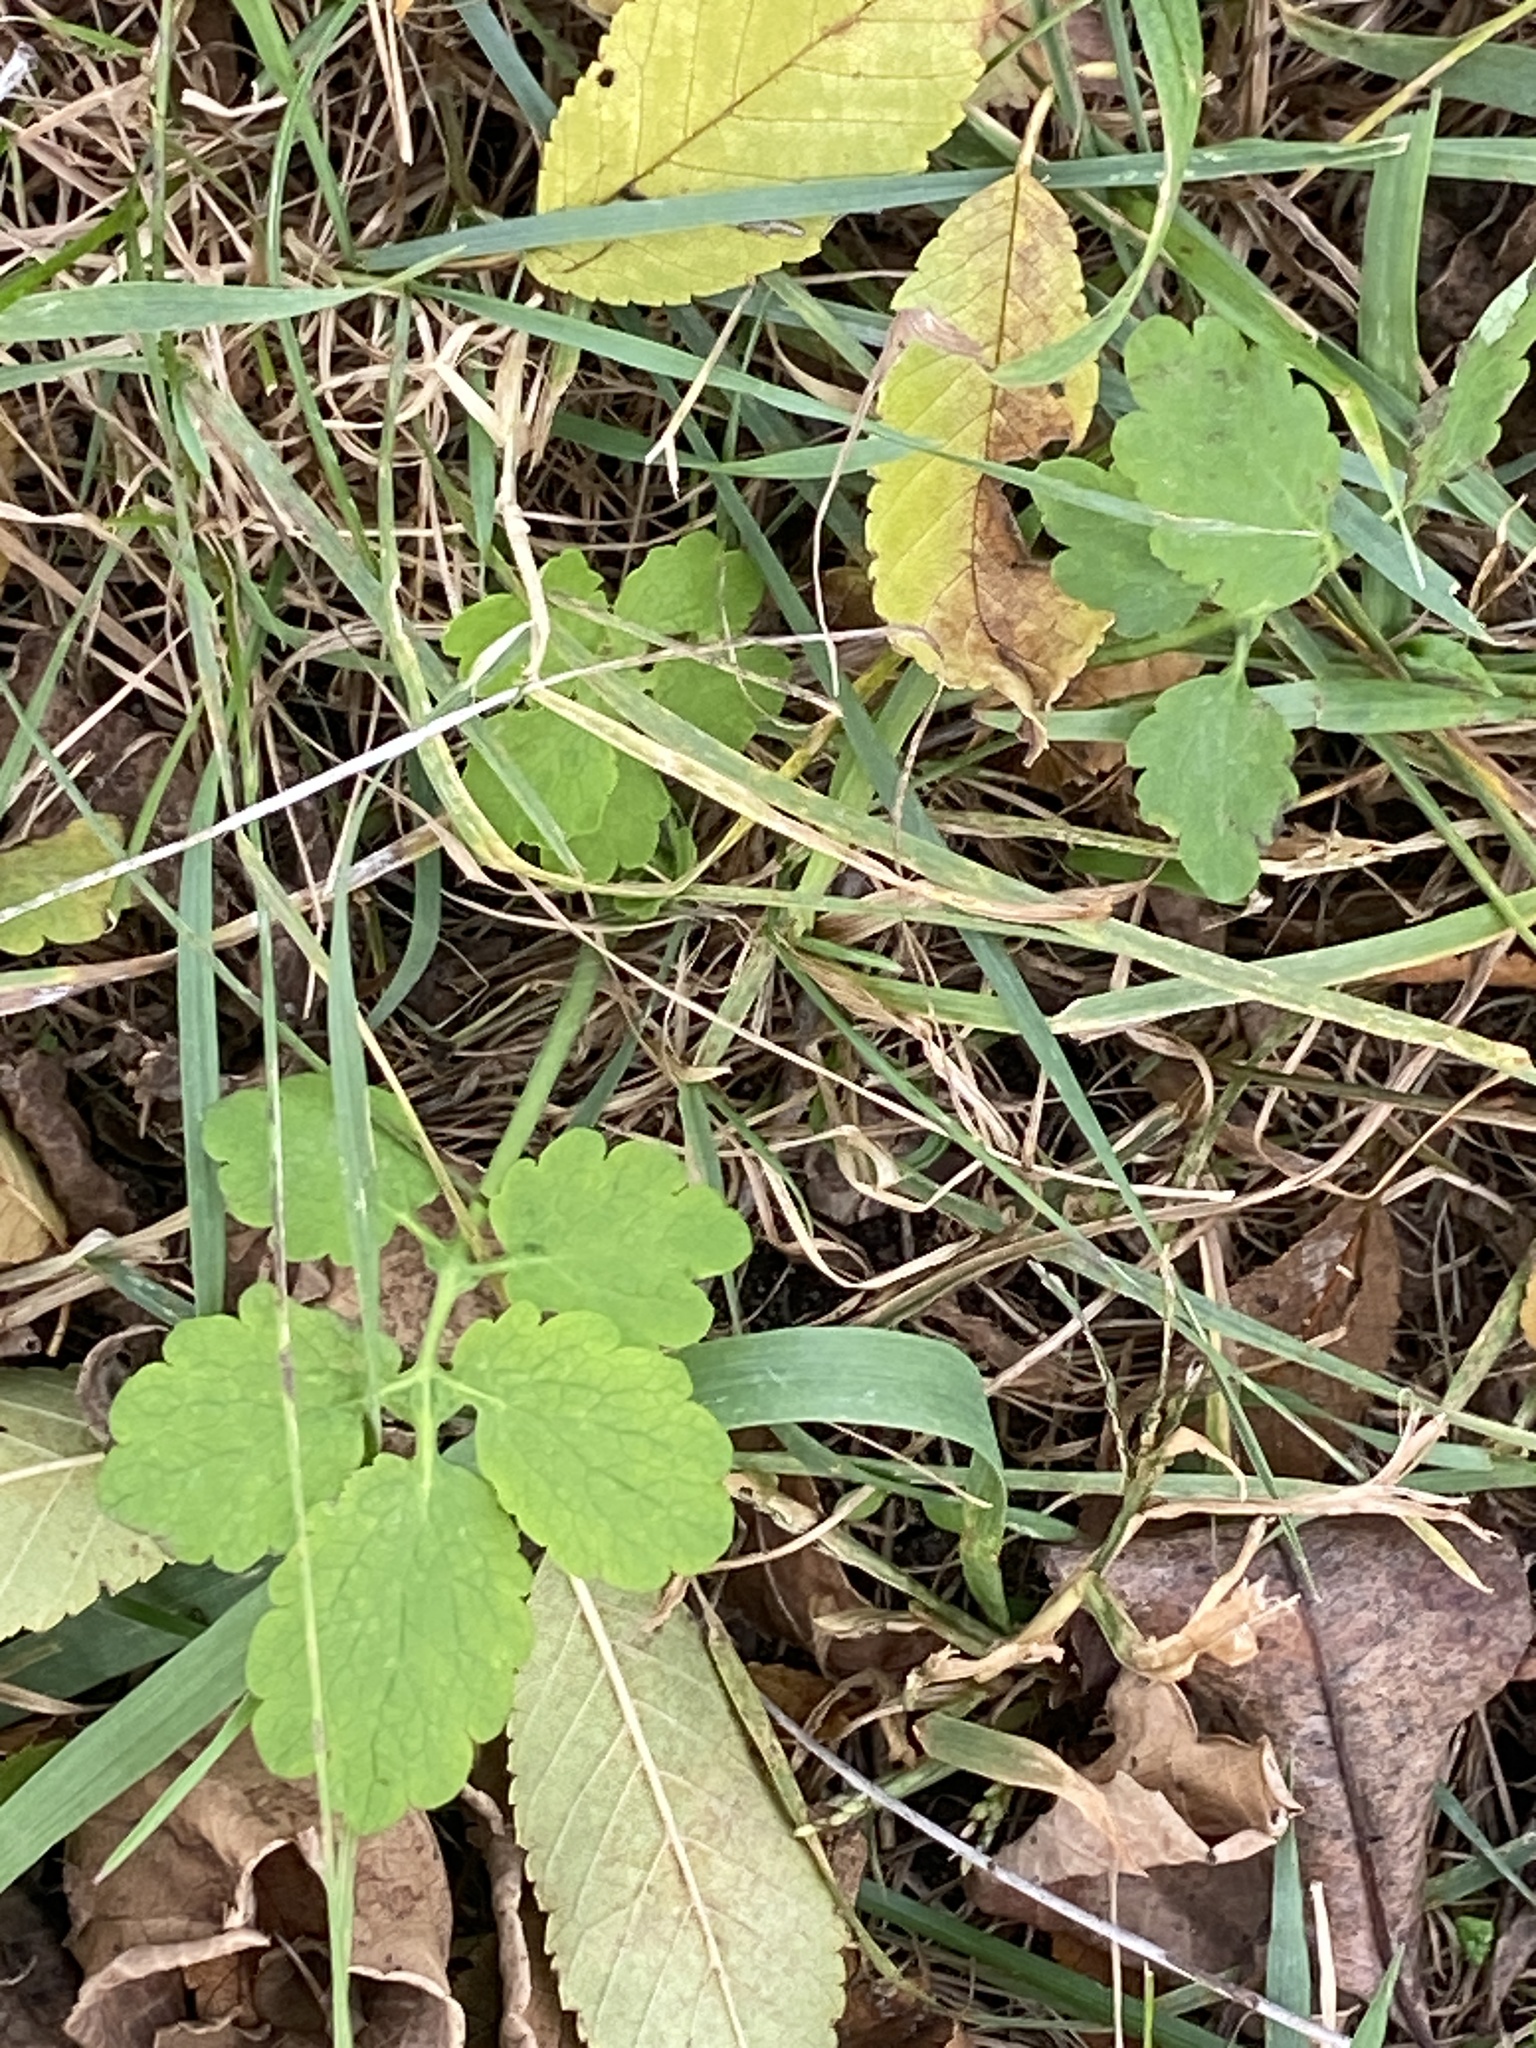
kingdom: Plantae
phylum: Tracheophyta
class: Magnoliopsida
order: Ranunculales
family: Papaveraceae
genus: Chelidonium
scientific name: Chelidonium majus
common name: Greater celandine
